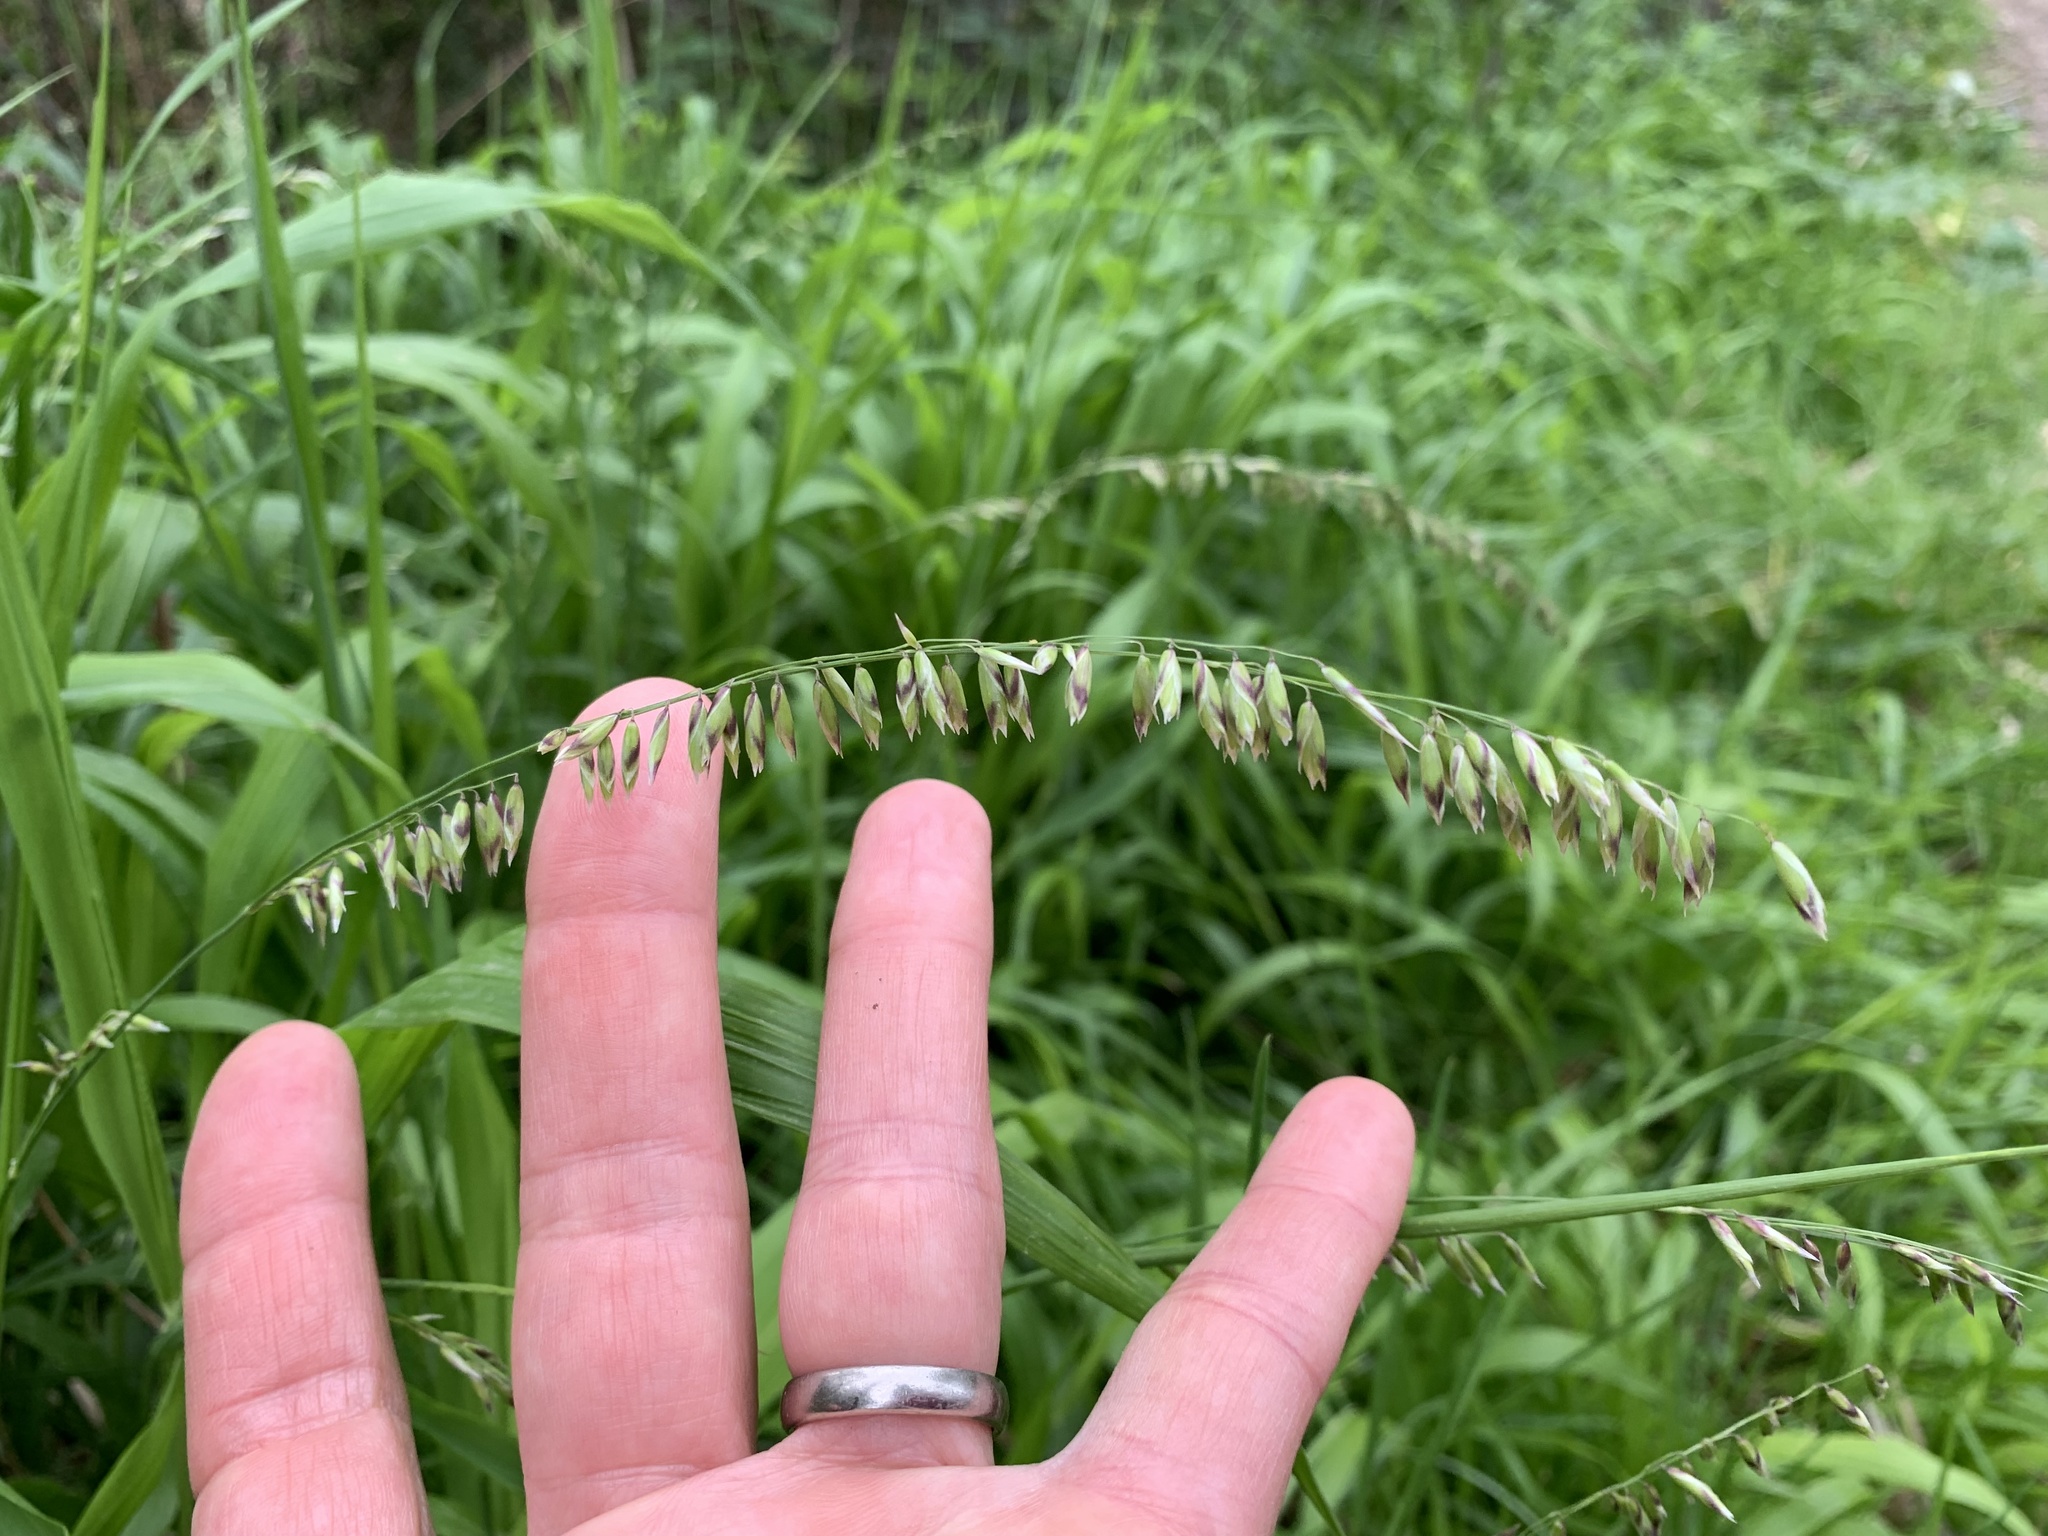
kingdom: Plantae
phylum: Tracheophyta
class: Liliopsida
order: Poales
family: Poaceae
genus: Melica
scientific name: Melica minuta
